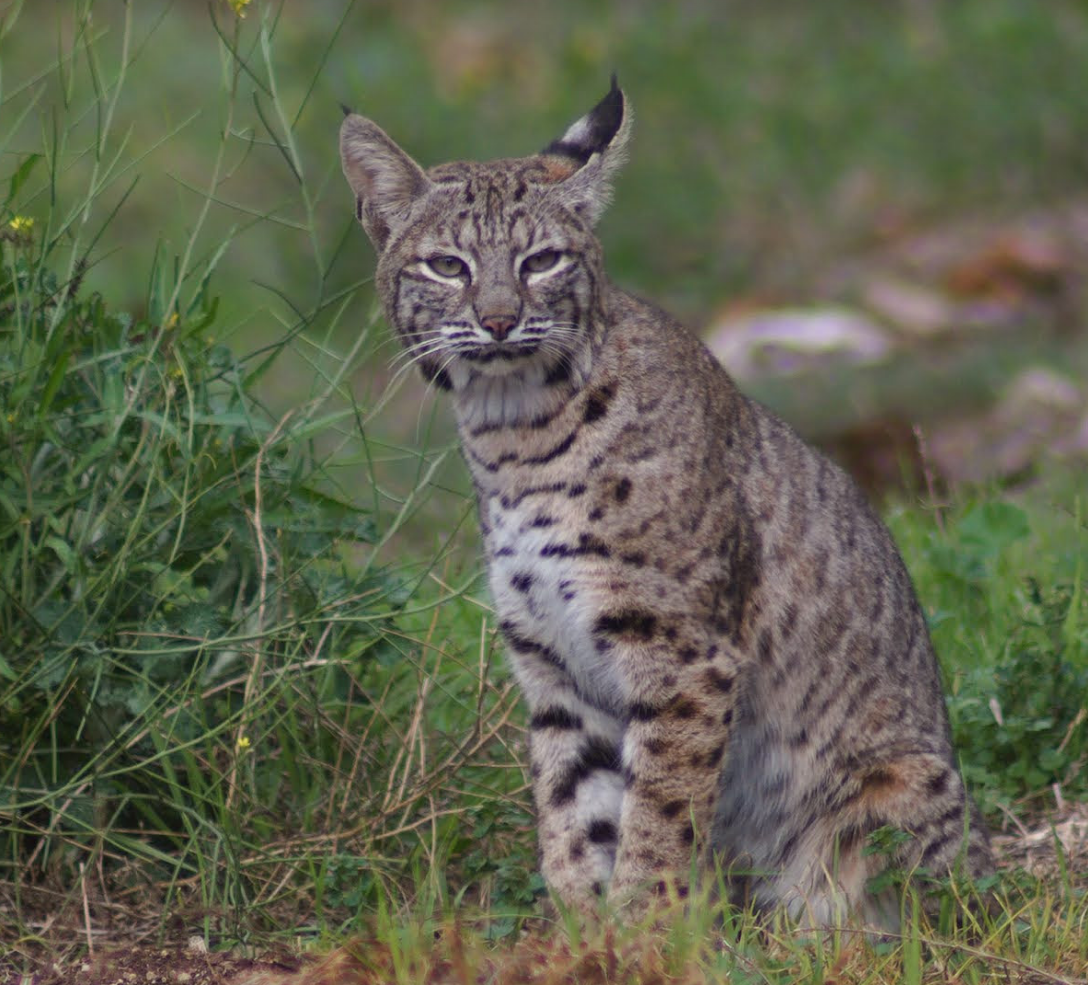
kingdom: Animalia
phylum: Chordata
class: Mammalia
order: Carnivora
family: Felidae
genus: Lynx
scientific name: Lynx rufus
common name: Bobcat
